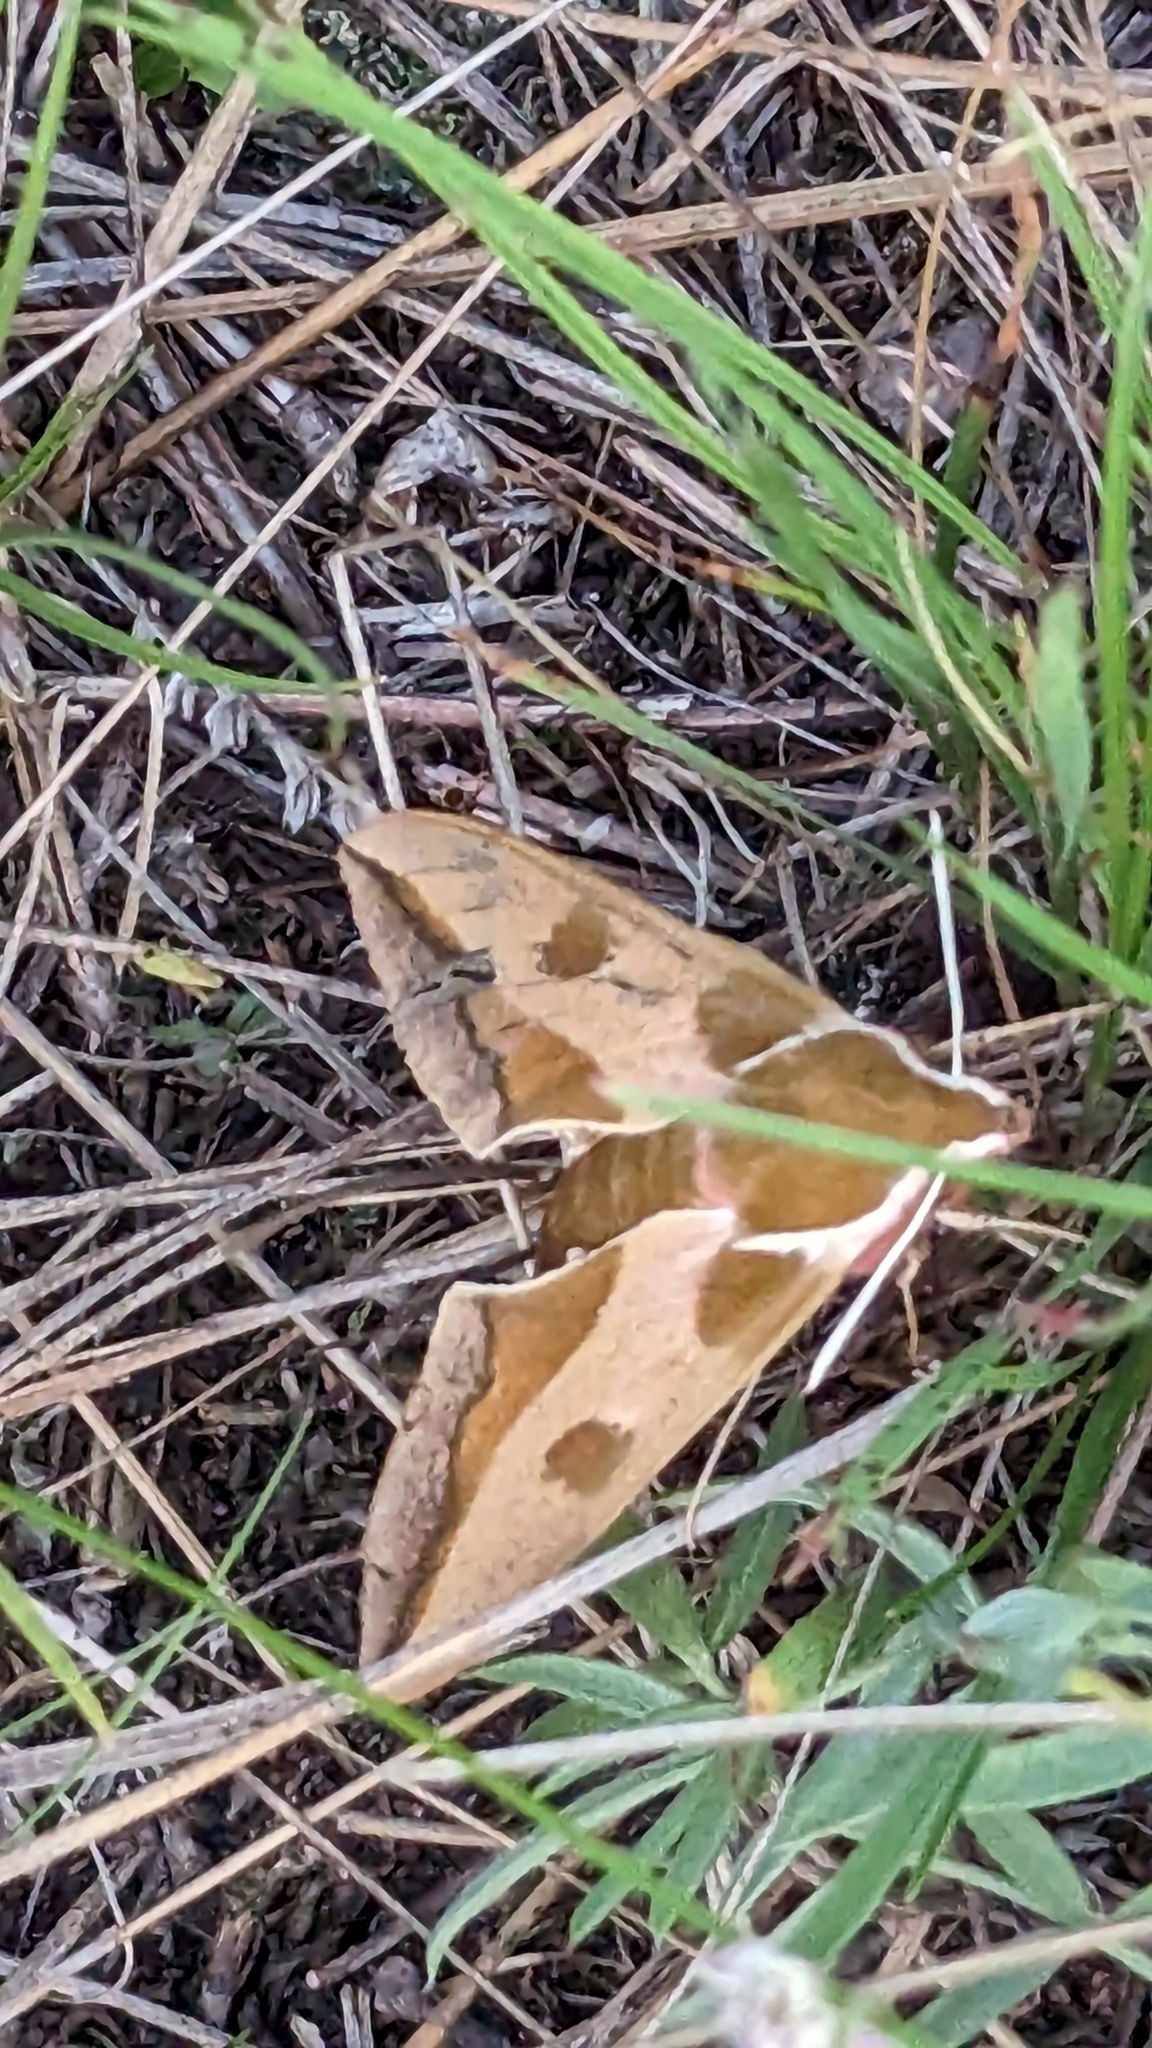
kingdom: Animalia
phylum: Arthropoda
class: Insecta
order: Lepidoptera
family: Sphingidae
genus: Hyles
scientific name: Hyles euphorbiae
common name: Spurge hawk-moth
